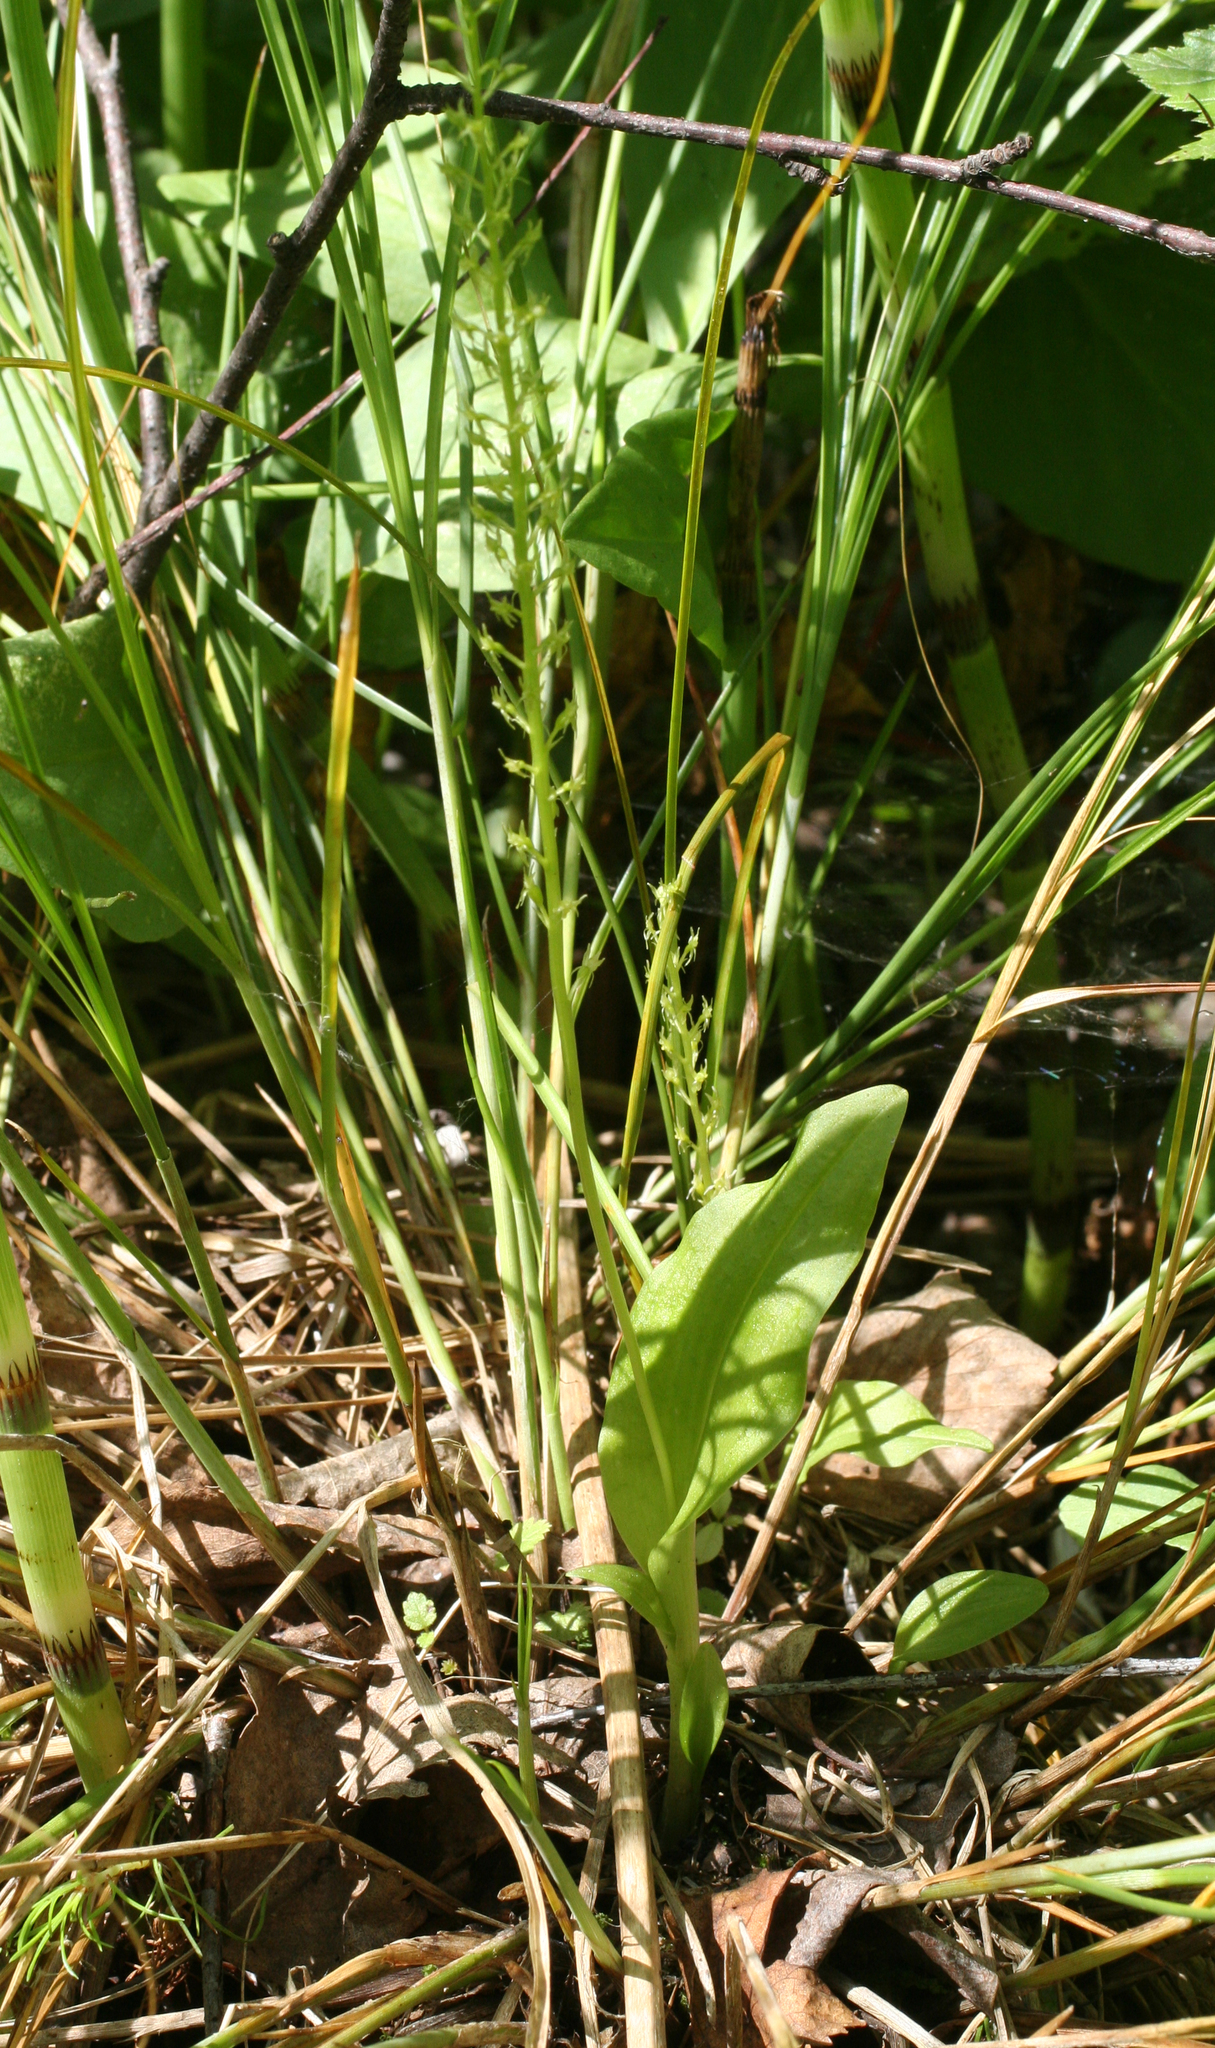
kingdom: Plantae
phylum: Tracheophyta
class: Liliopsida
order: Asparagales
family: Orchidaceae
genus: Malaxis
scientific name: Malaxis monophyllos
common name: White adder's-mouth
